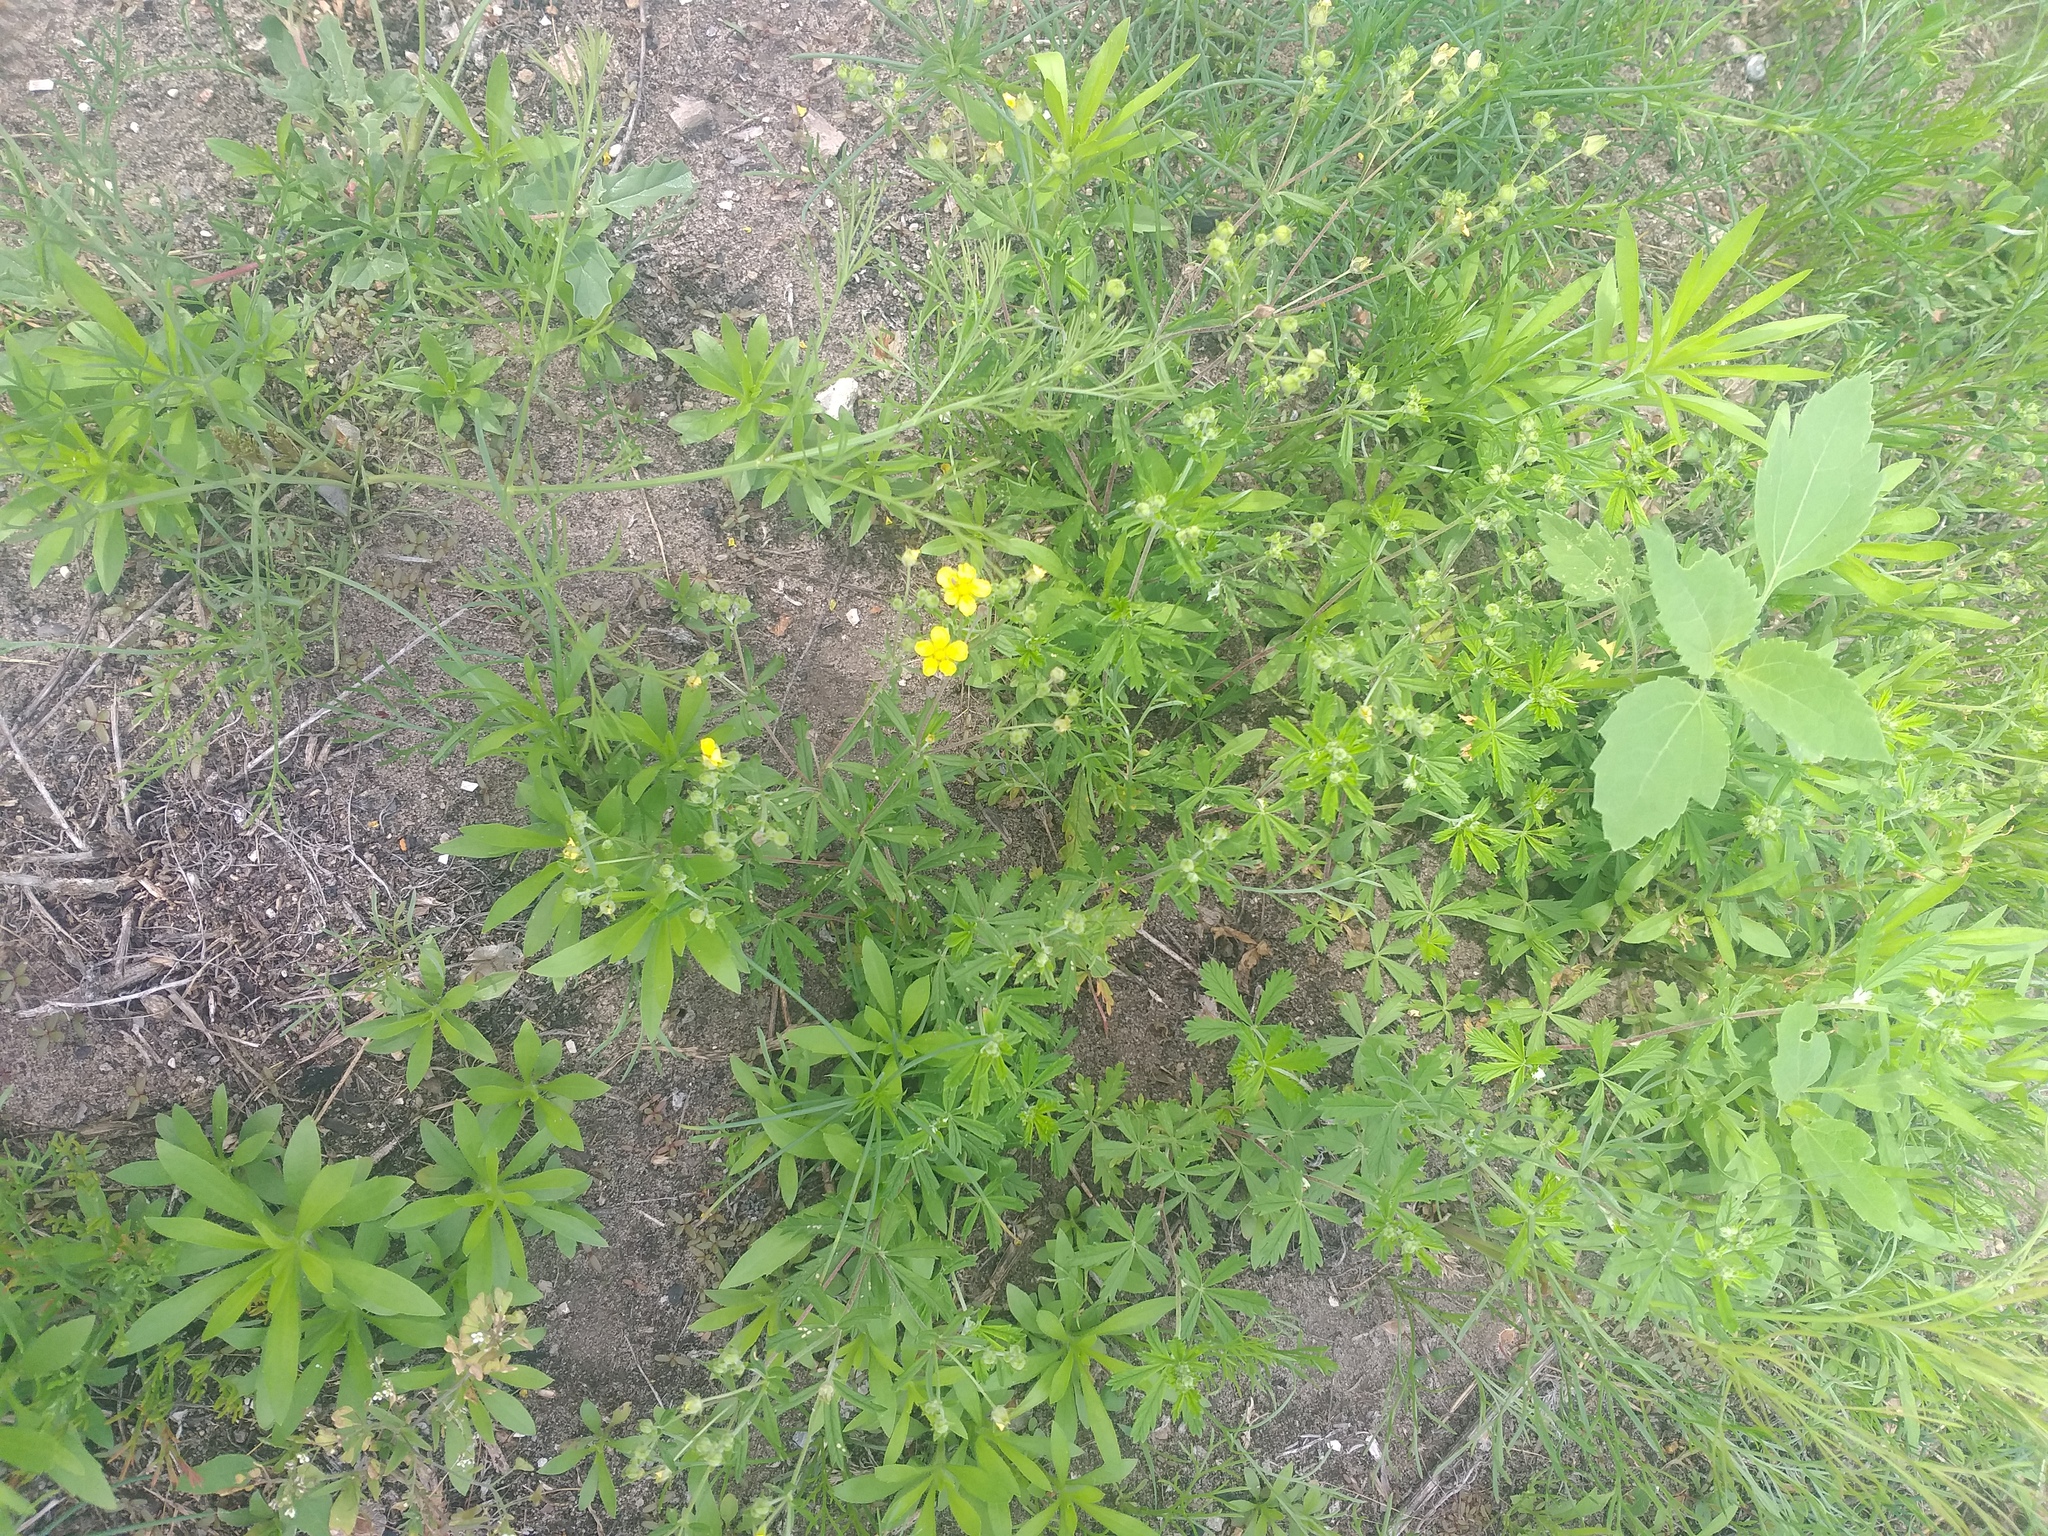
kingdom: Plantae
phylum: Tracheophyta
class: Magnoliopsida
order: Rosales
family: Rosaceae
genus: Potentilla
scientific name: Potentilla argentea
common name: Hoary cinquefoil
